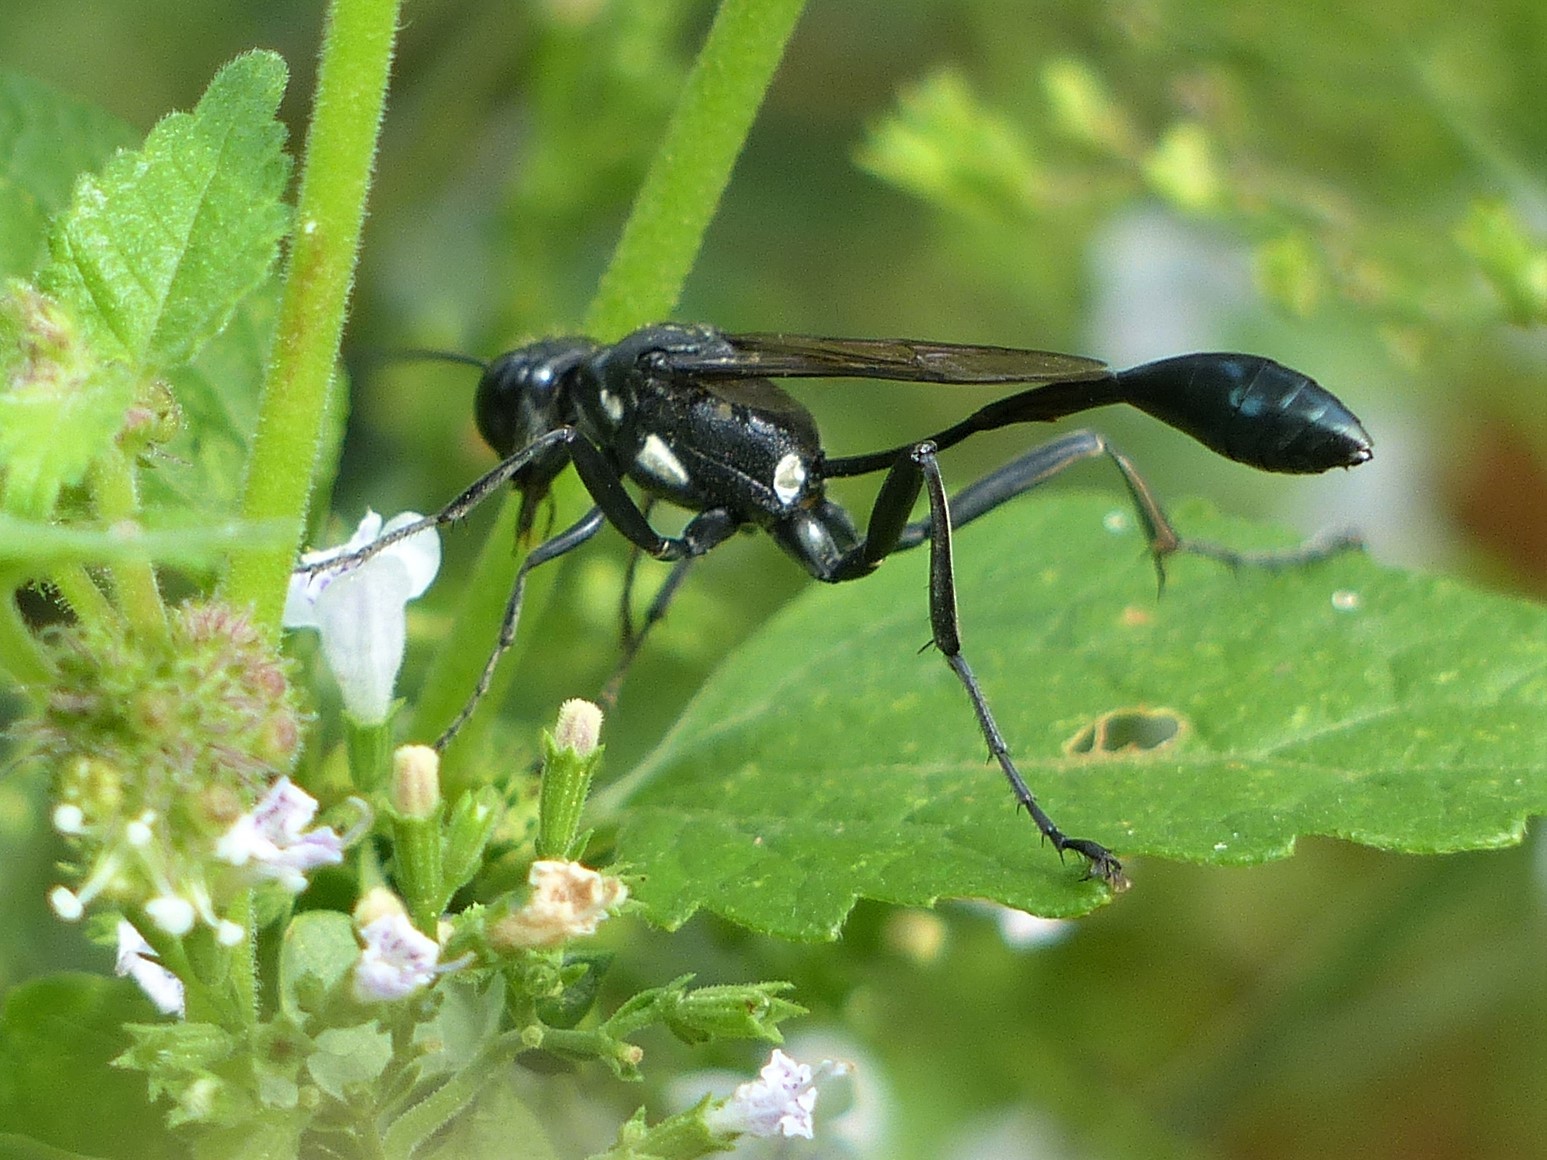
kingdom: Animalia
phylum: Arthropoda
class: Insecta
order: Hymenoptera
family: Sphecidae
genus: Eremnophila
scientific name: Eremnophila aureonotata
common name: Gold-marked thread-waisted wasp
